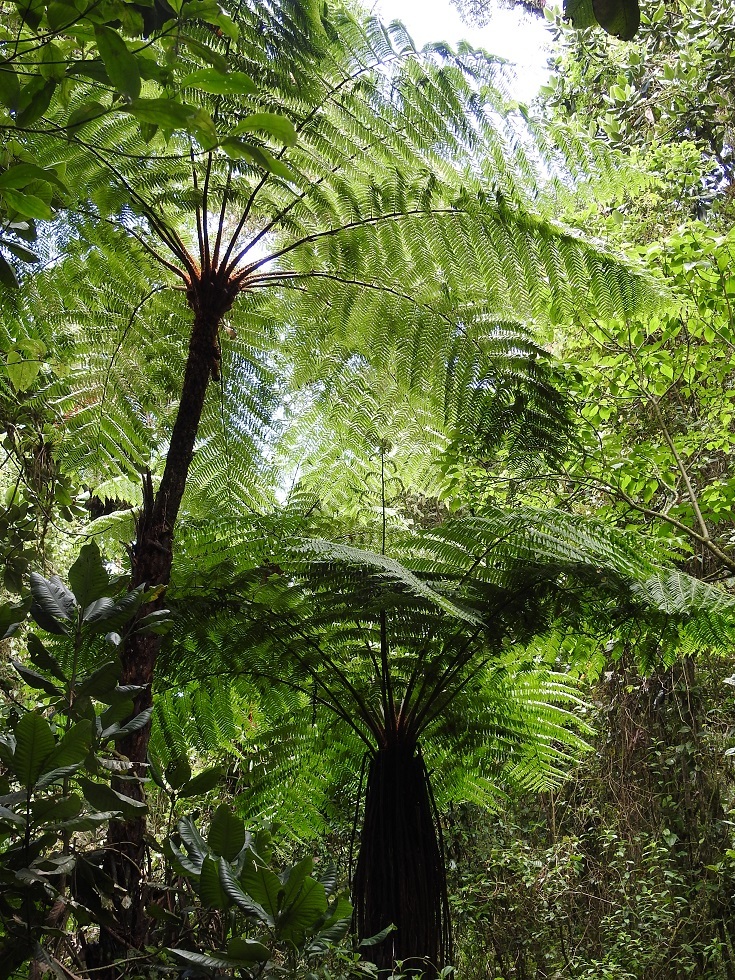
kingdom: Plantae
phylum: Tracheophyta
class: Polypodiopsida
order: Cyatheales
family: Cyatheaceae
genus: Cyathea
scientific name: Cyathea fulva
